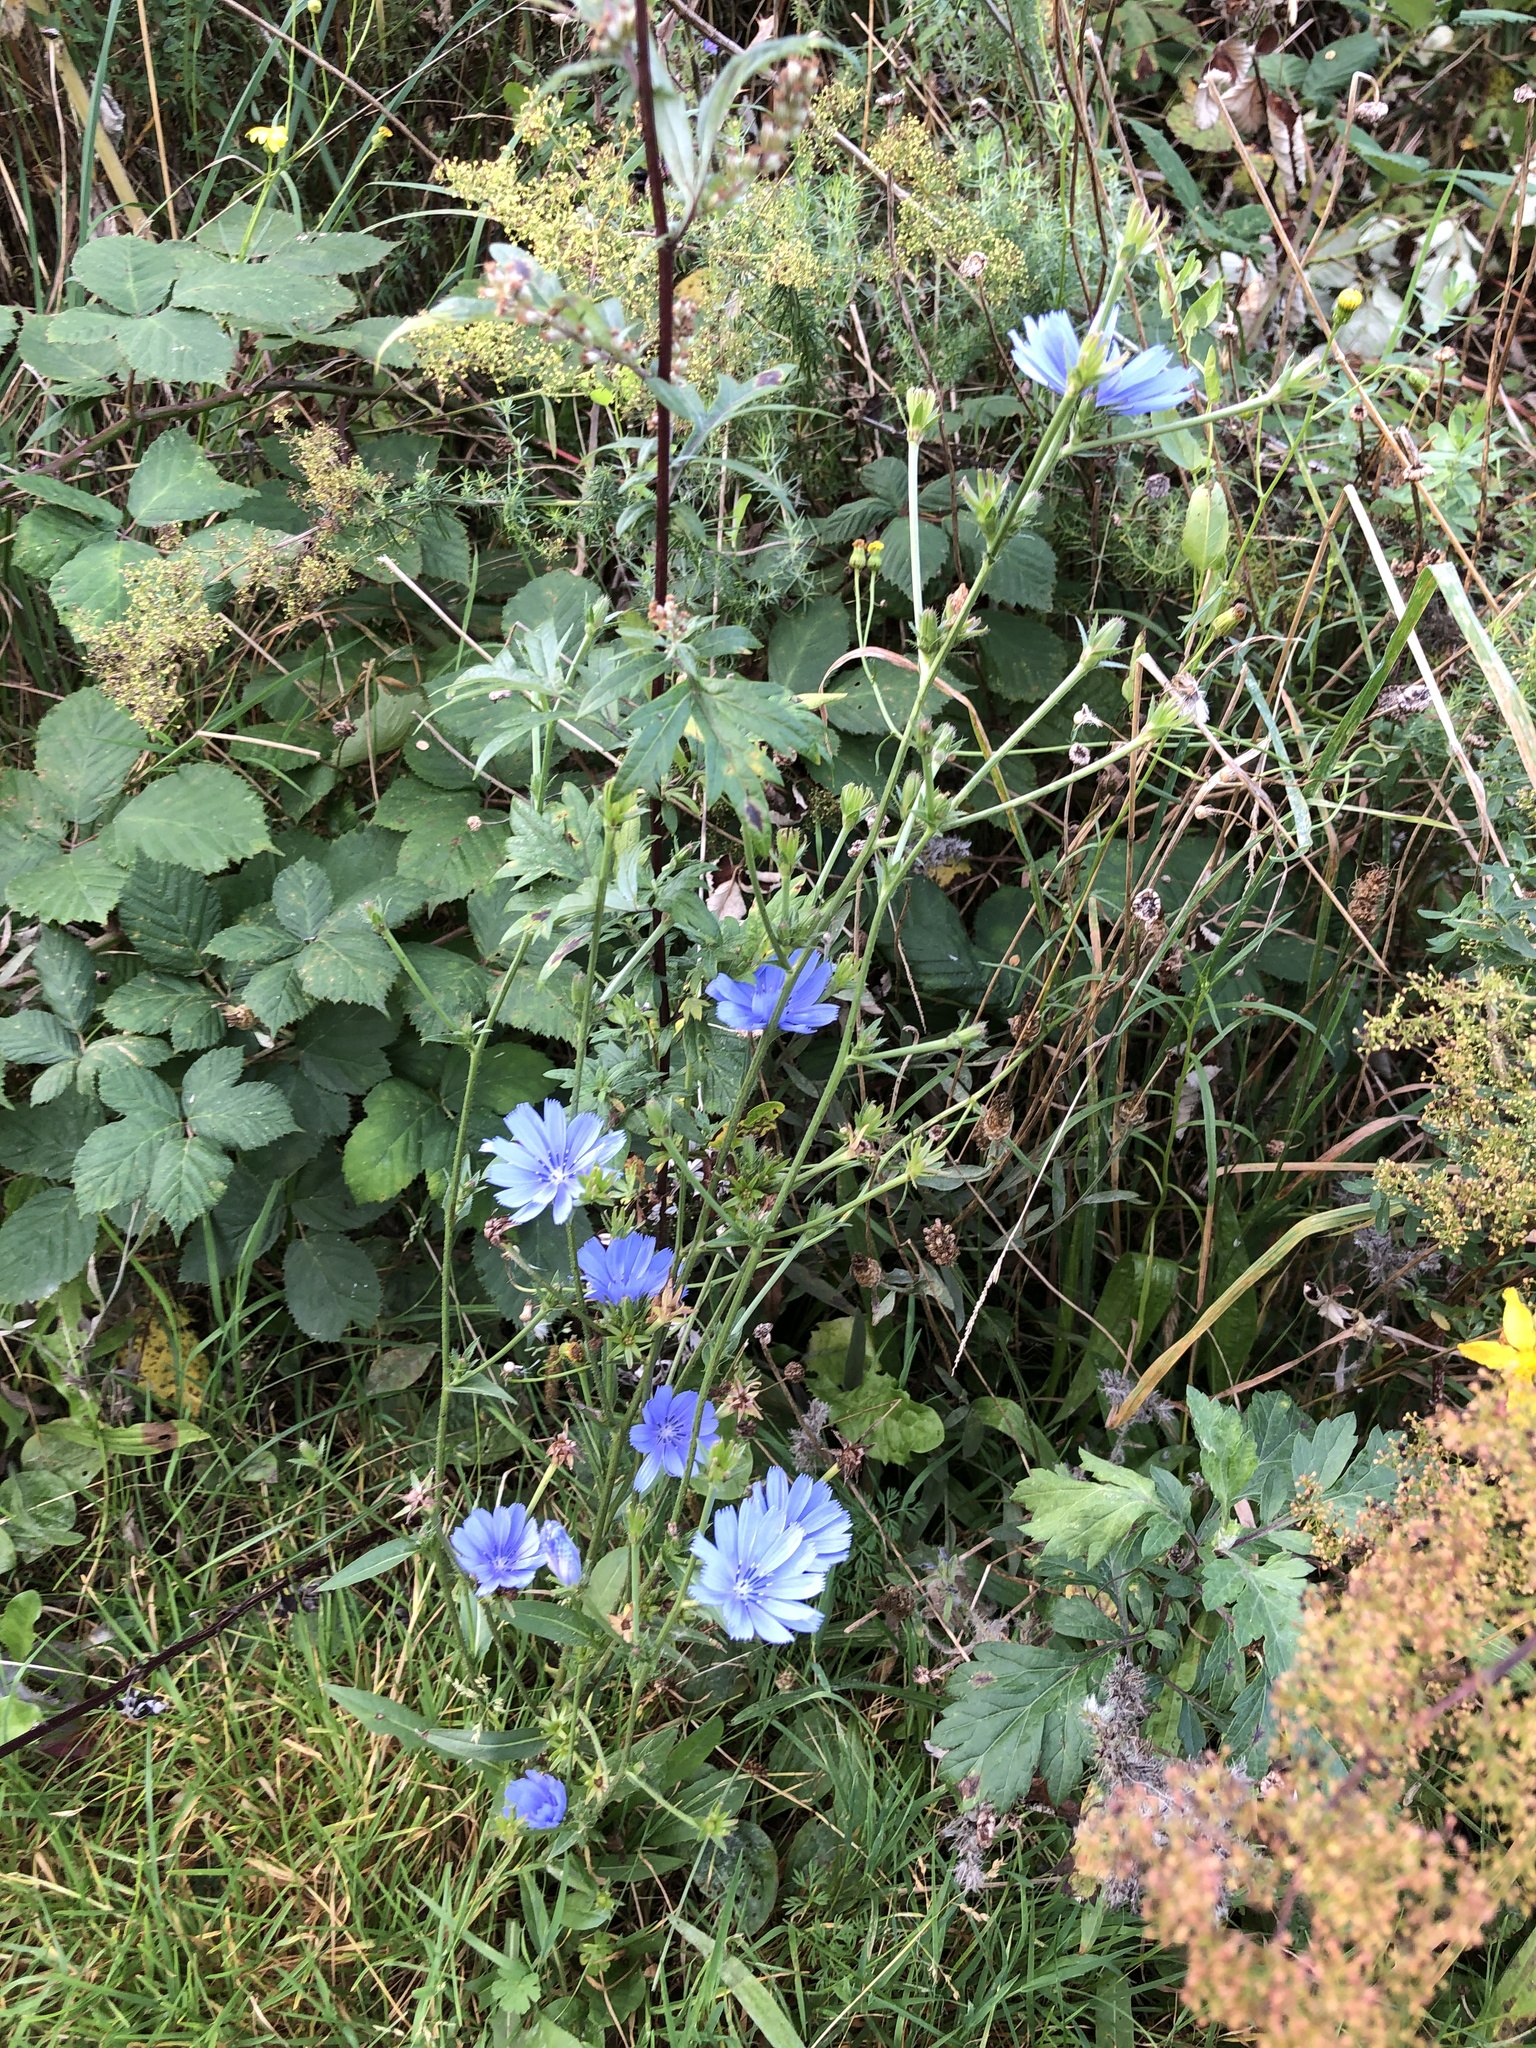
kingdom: Plantae
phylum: Tracheophyta
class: Magnoliopsida
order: Asterales
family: Asteraceae
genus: Cichorium
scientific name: Cichorium intybus
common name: Chicory
